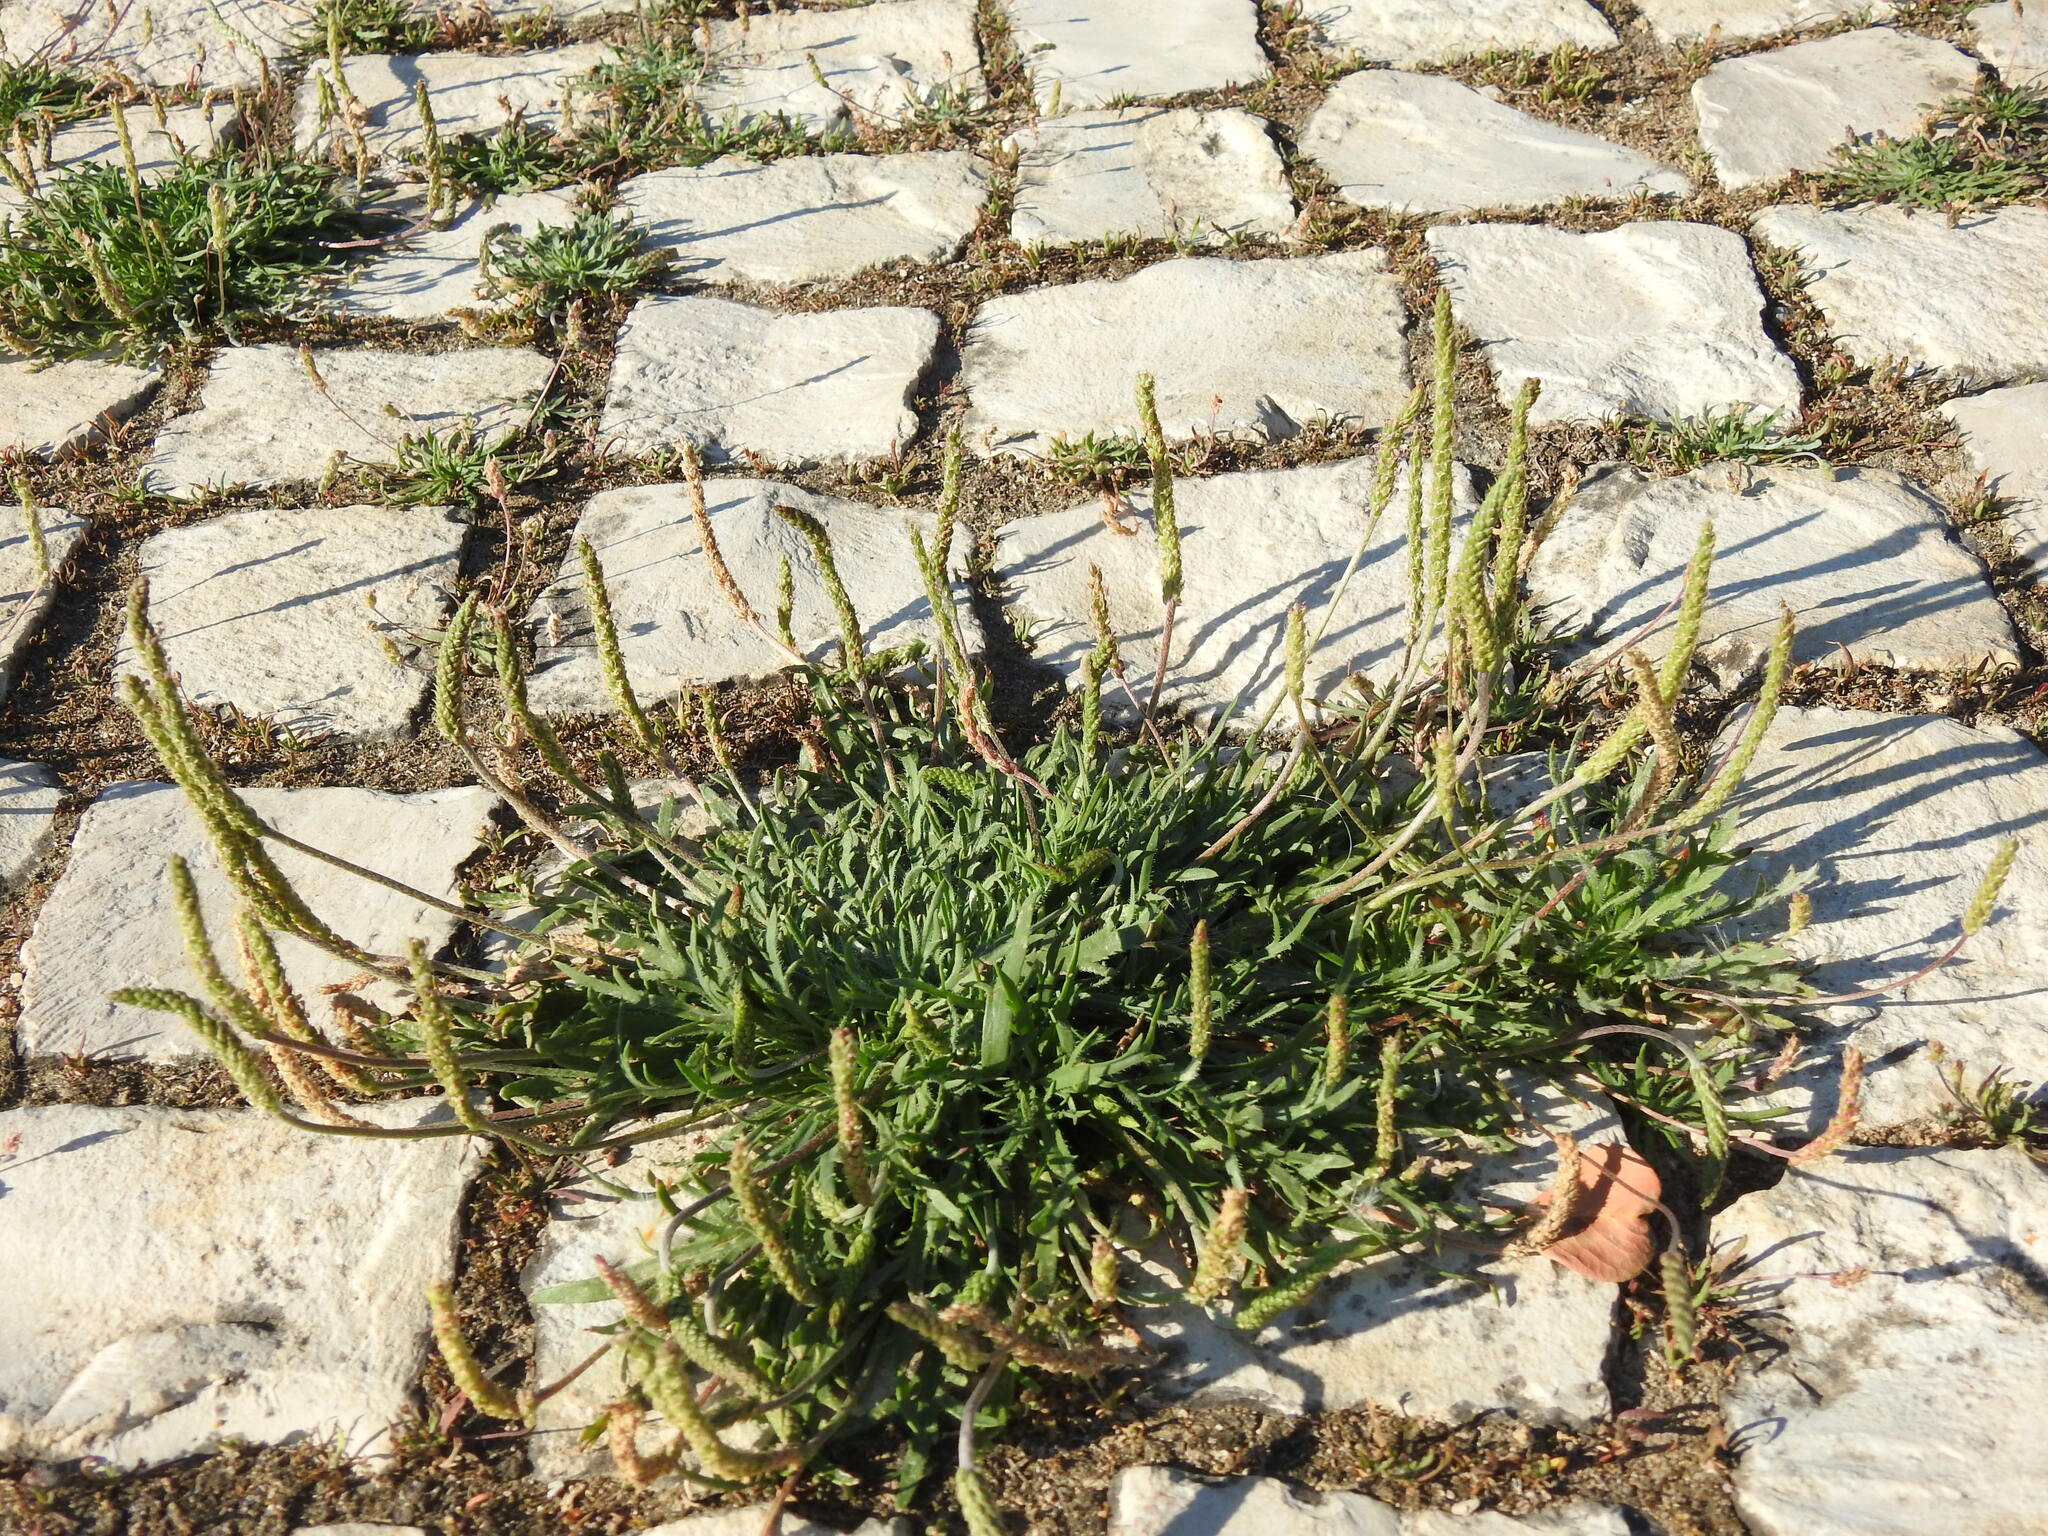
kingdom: Plantae
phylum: Tracheophyta
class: Magnoliopsida
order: Lamiales
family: Plantaginaceae
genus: Plantago
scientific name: Plantago coronopus
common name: Buck's-horn plantain
